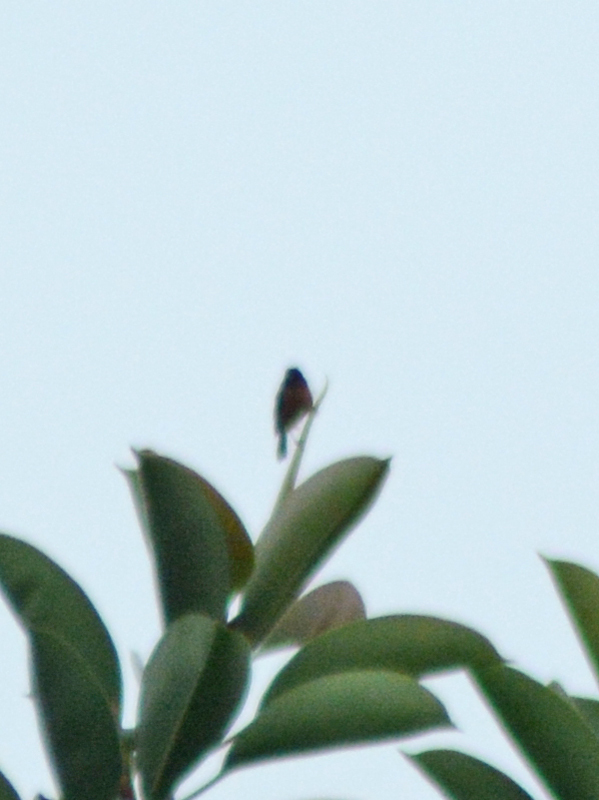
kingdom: Animalia
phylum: Chordata
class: Aves
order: Passeriformes
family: Thraupidae
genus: Diglossa
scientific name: Diglossa baritula
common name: Cinnamon-bellied flowerpiercer
